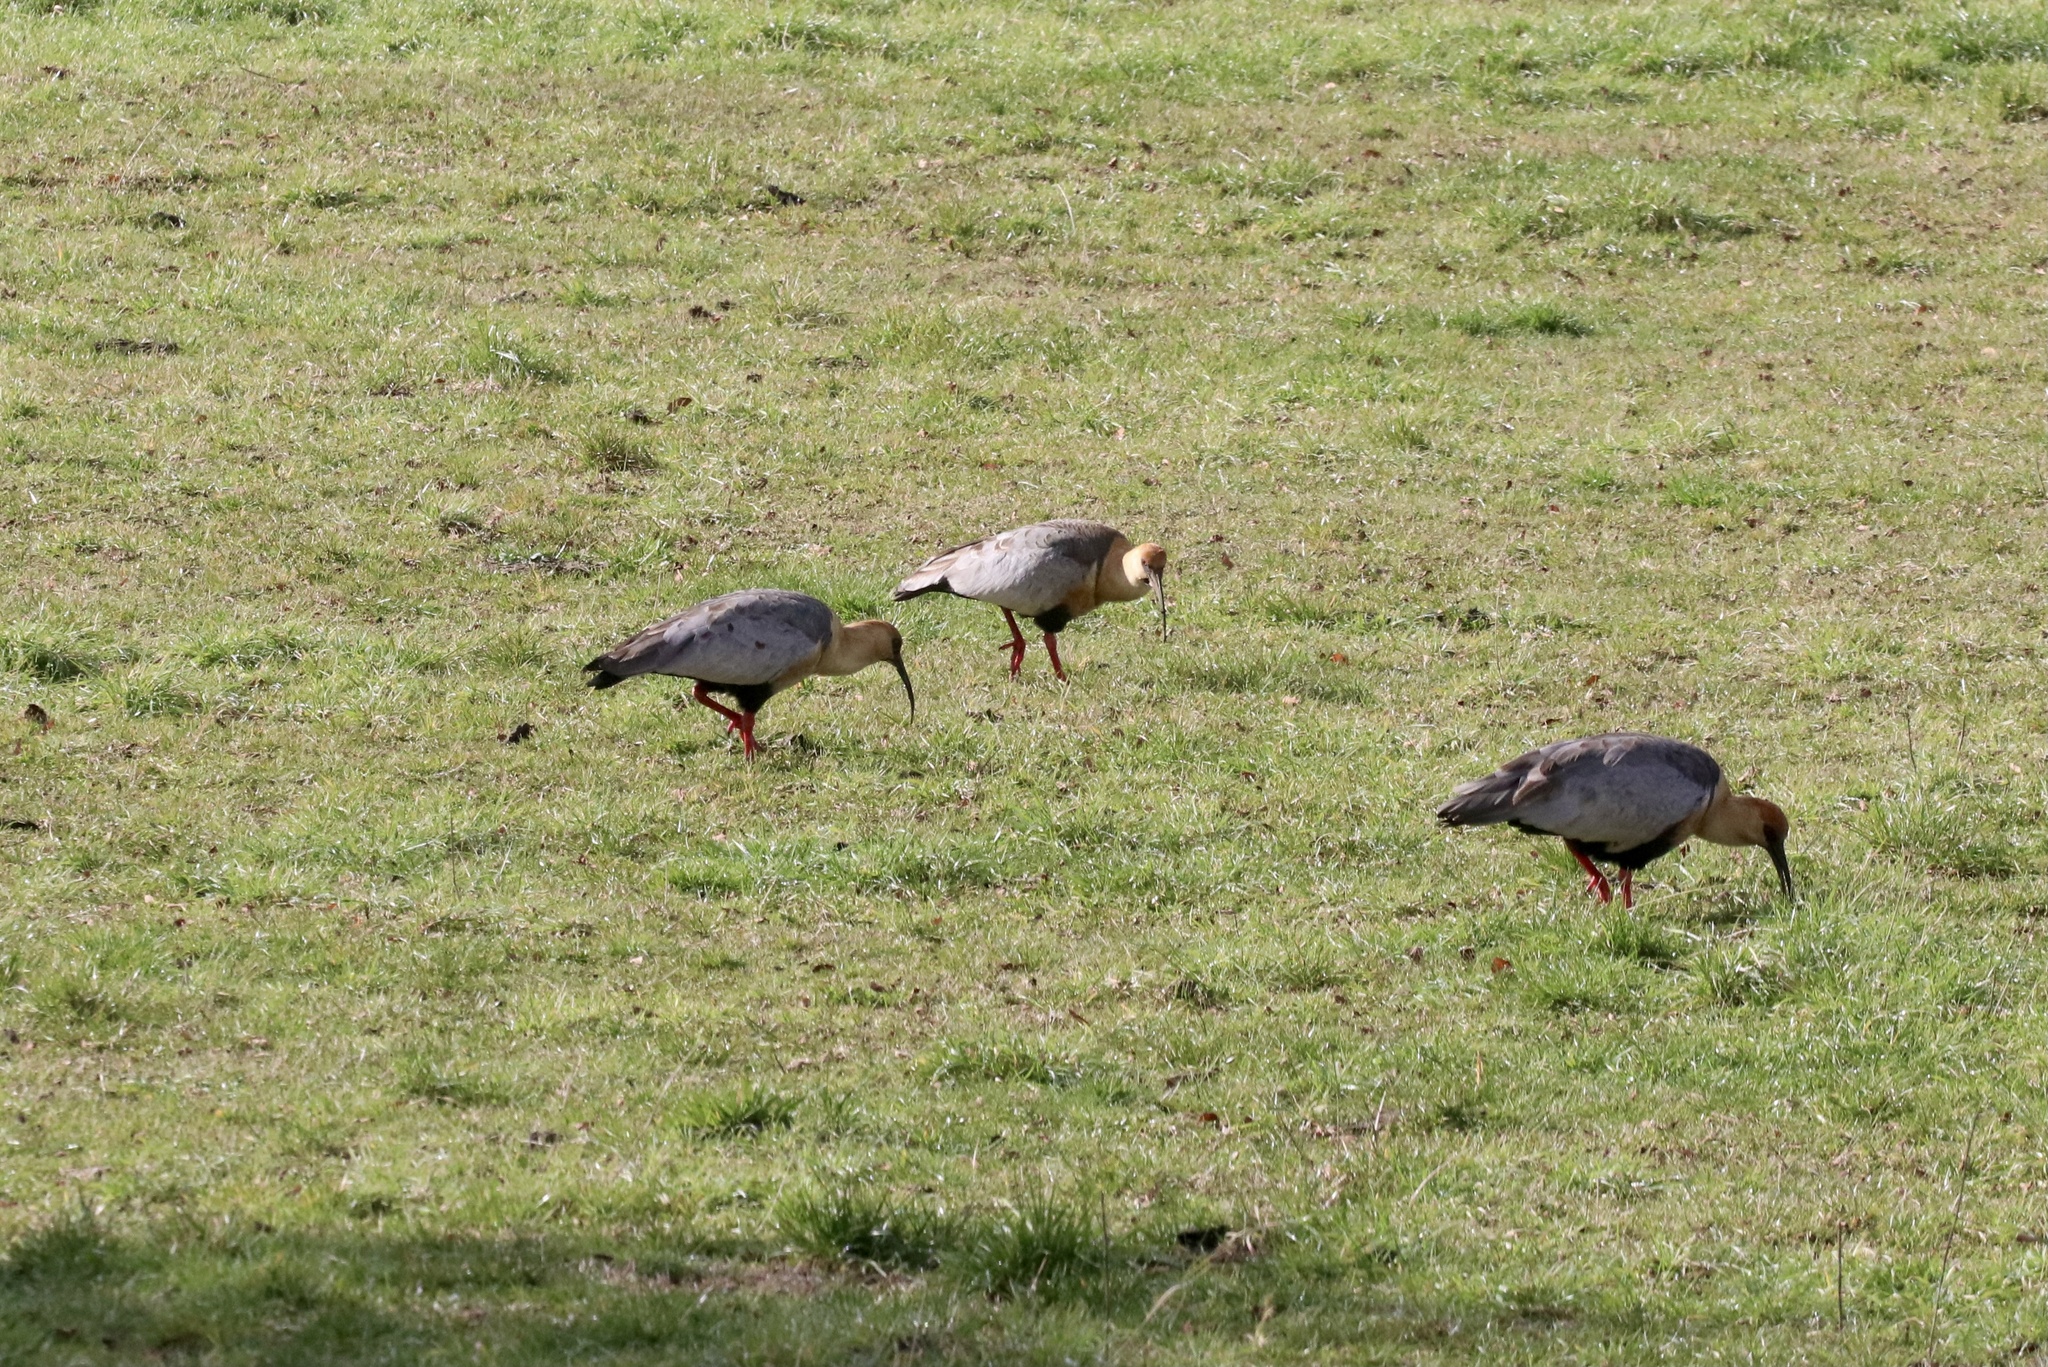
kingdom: Animalia
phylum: Chordata
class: Aves
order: Pelecaniformes
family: Threskiornithidae
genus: Theristicus
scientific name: Theristicus melanopis
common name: Black-faced ibis
